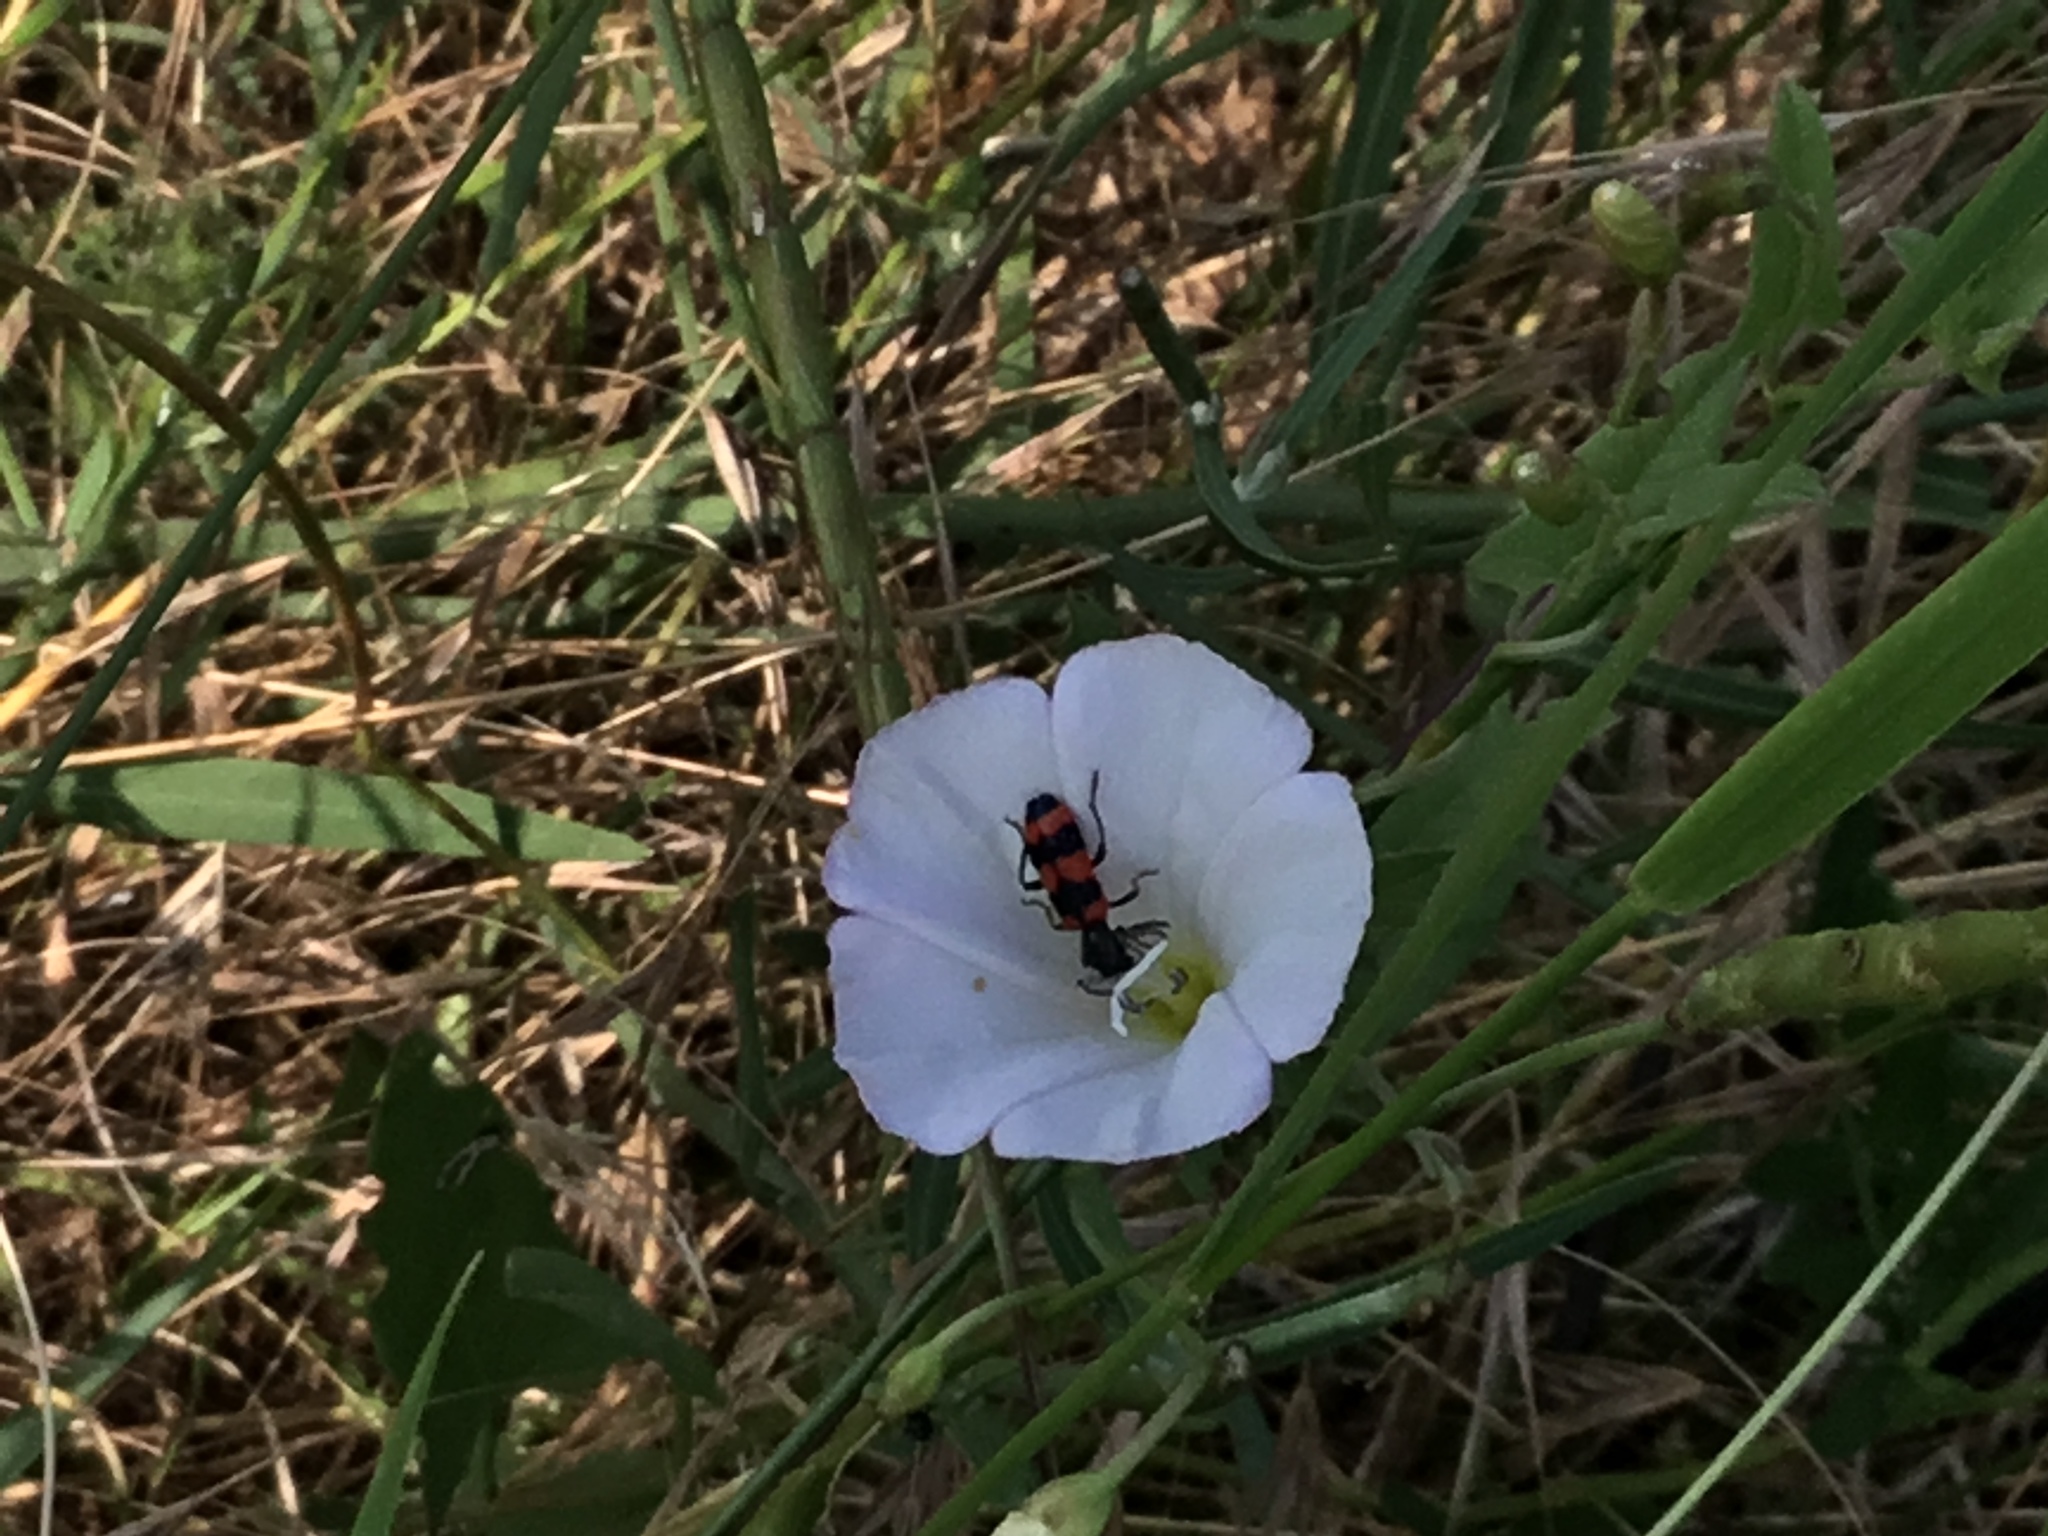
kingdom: Animalia
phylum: Arthropoda
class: Insecta
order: Coleoptera
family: Cleridae
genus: Trichodes
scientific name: Trichodes apiarius
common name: Bee-eating beetle
